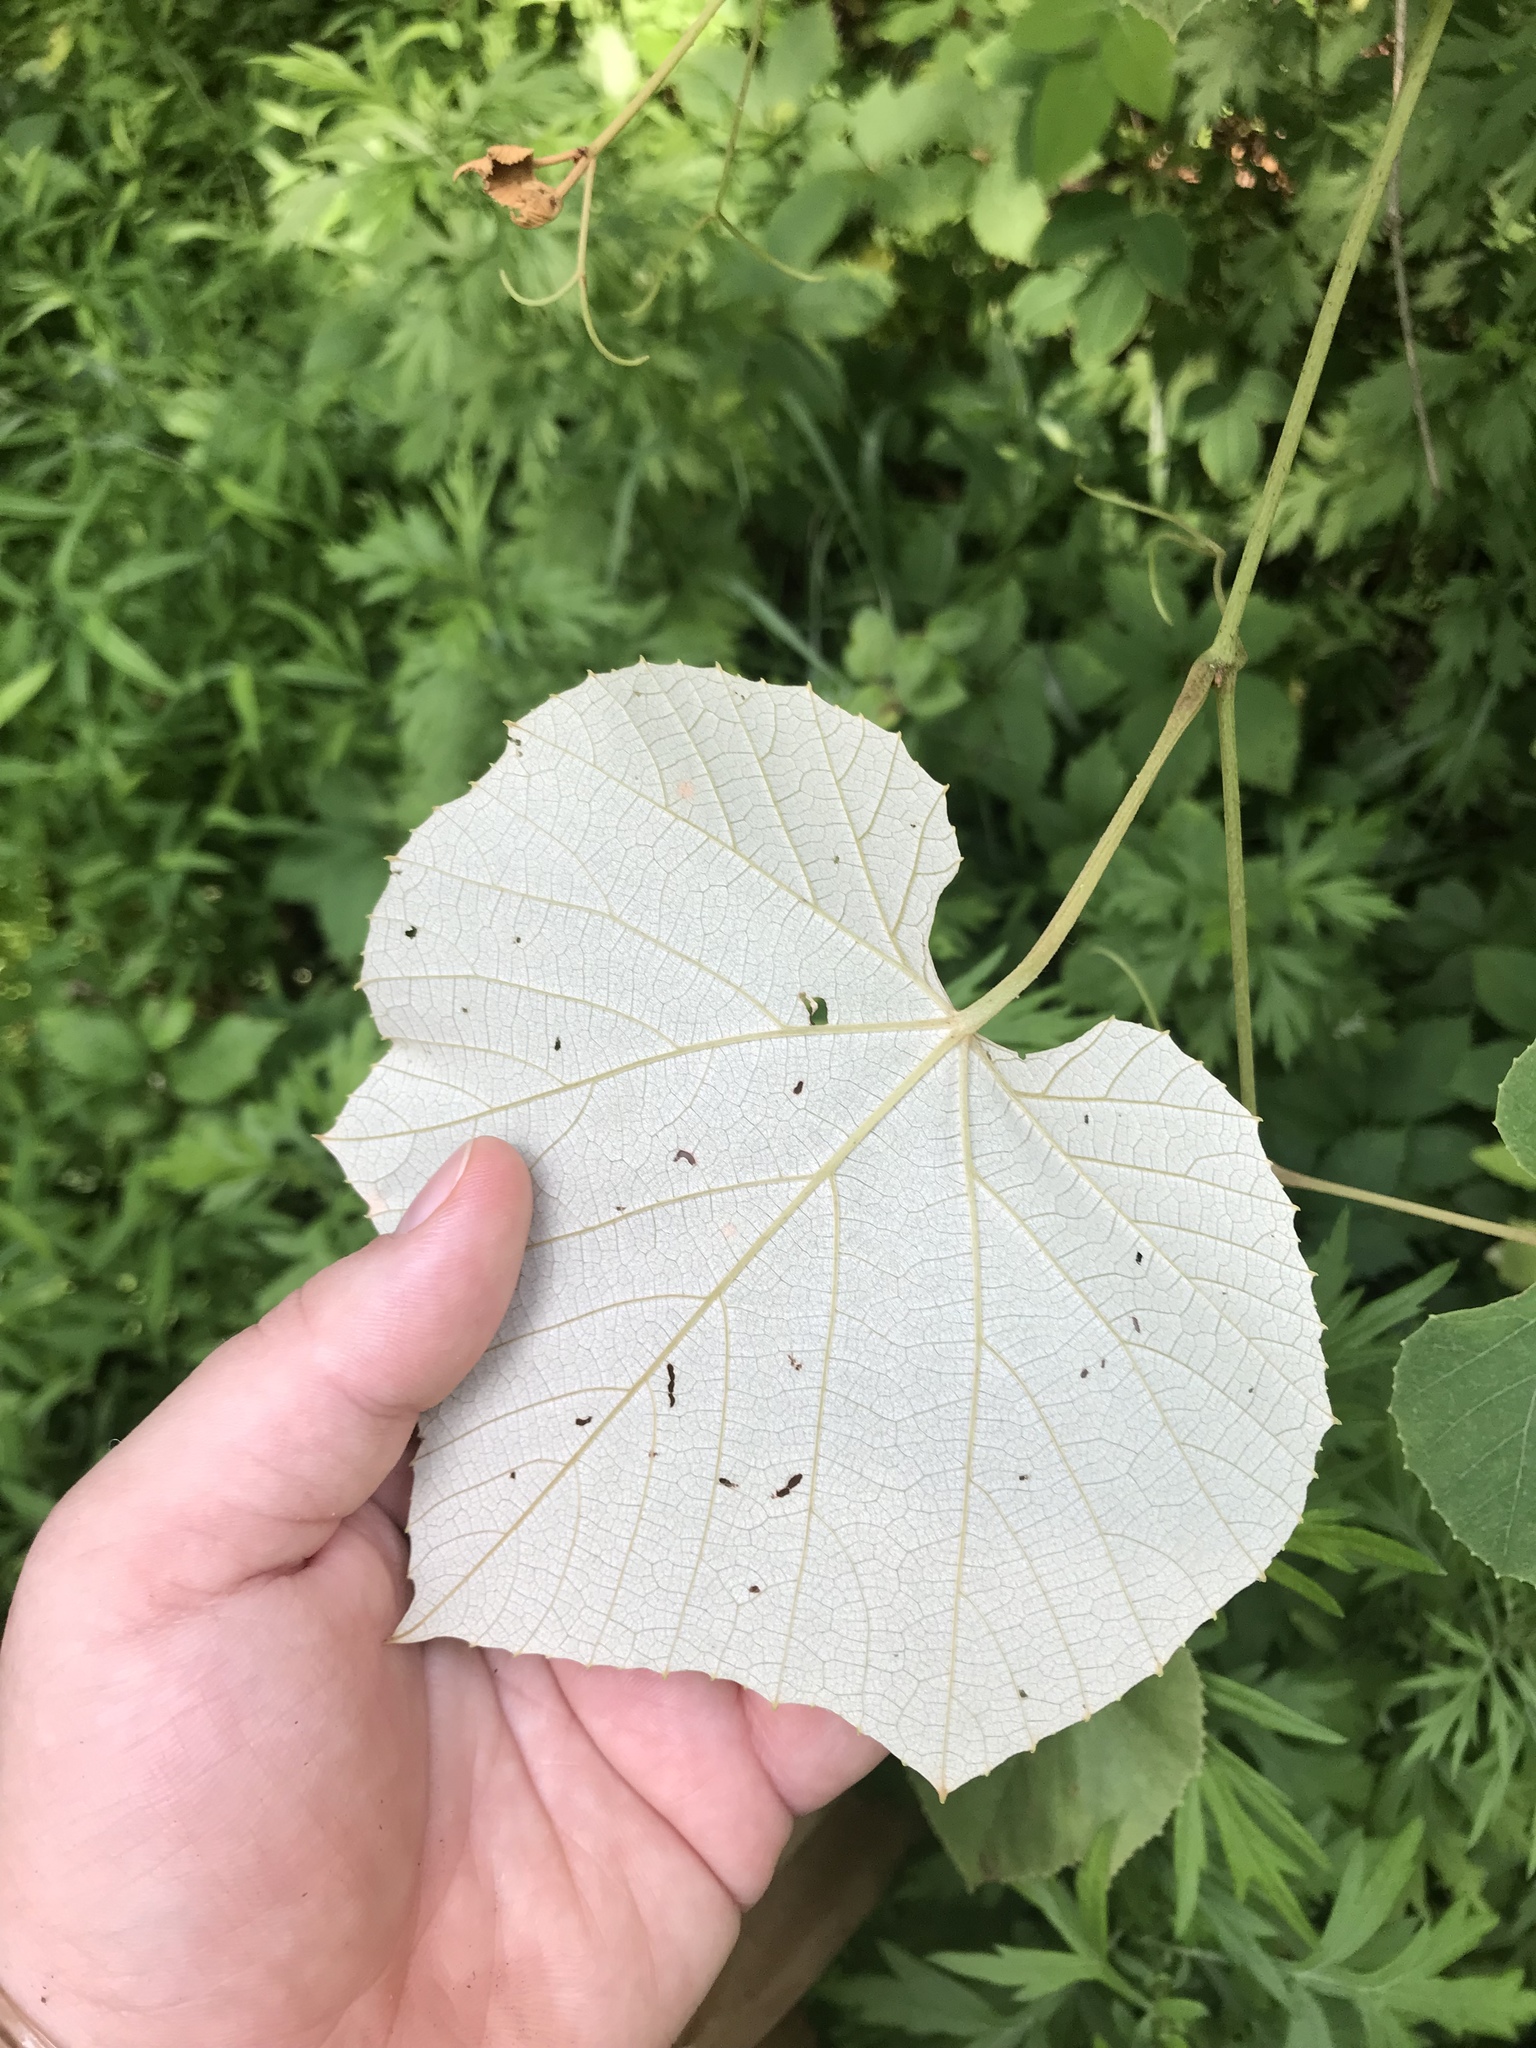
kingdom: Plantae
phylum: Tracheophyta
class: Magnoliopsida
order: Vitales
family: Vitaceae
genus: Vitis
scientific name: Vitis labrusca
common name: Concord grape
